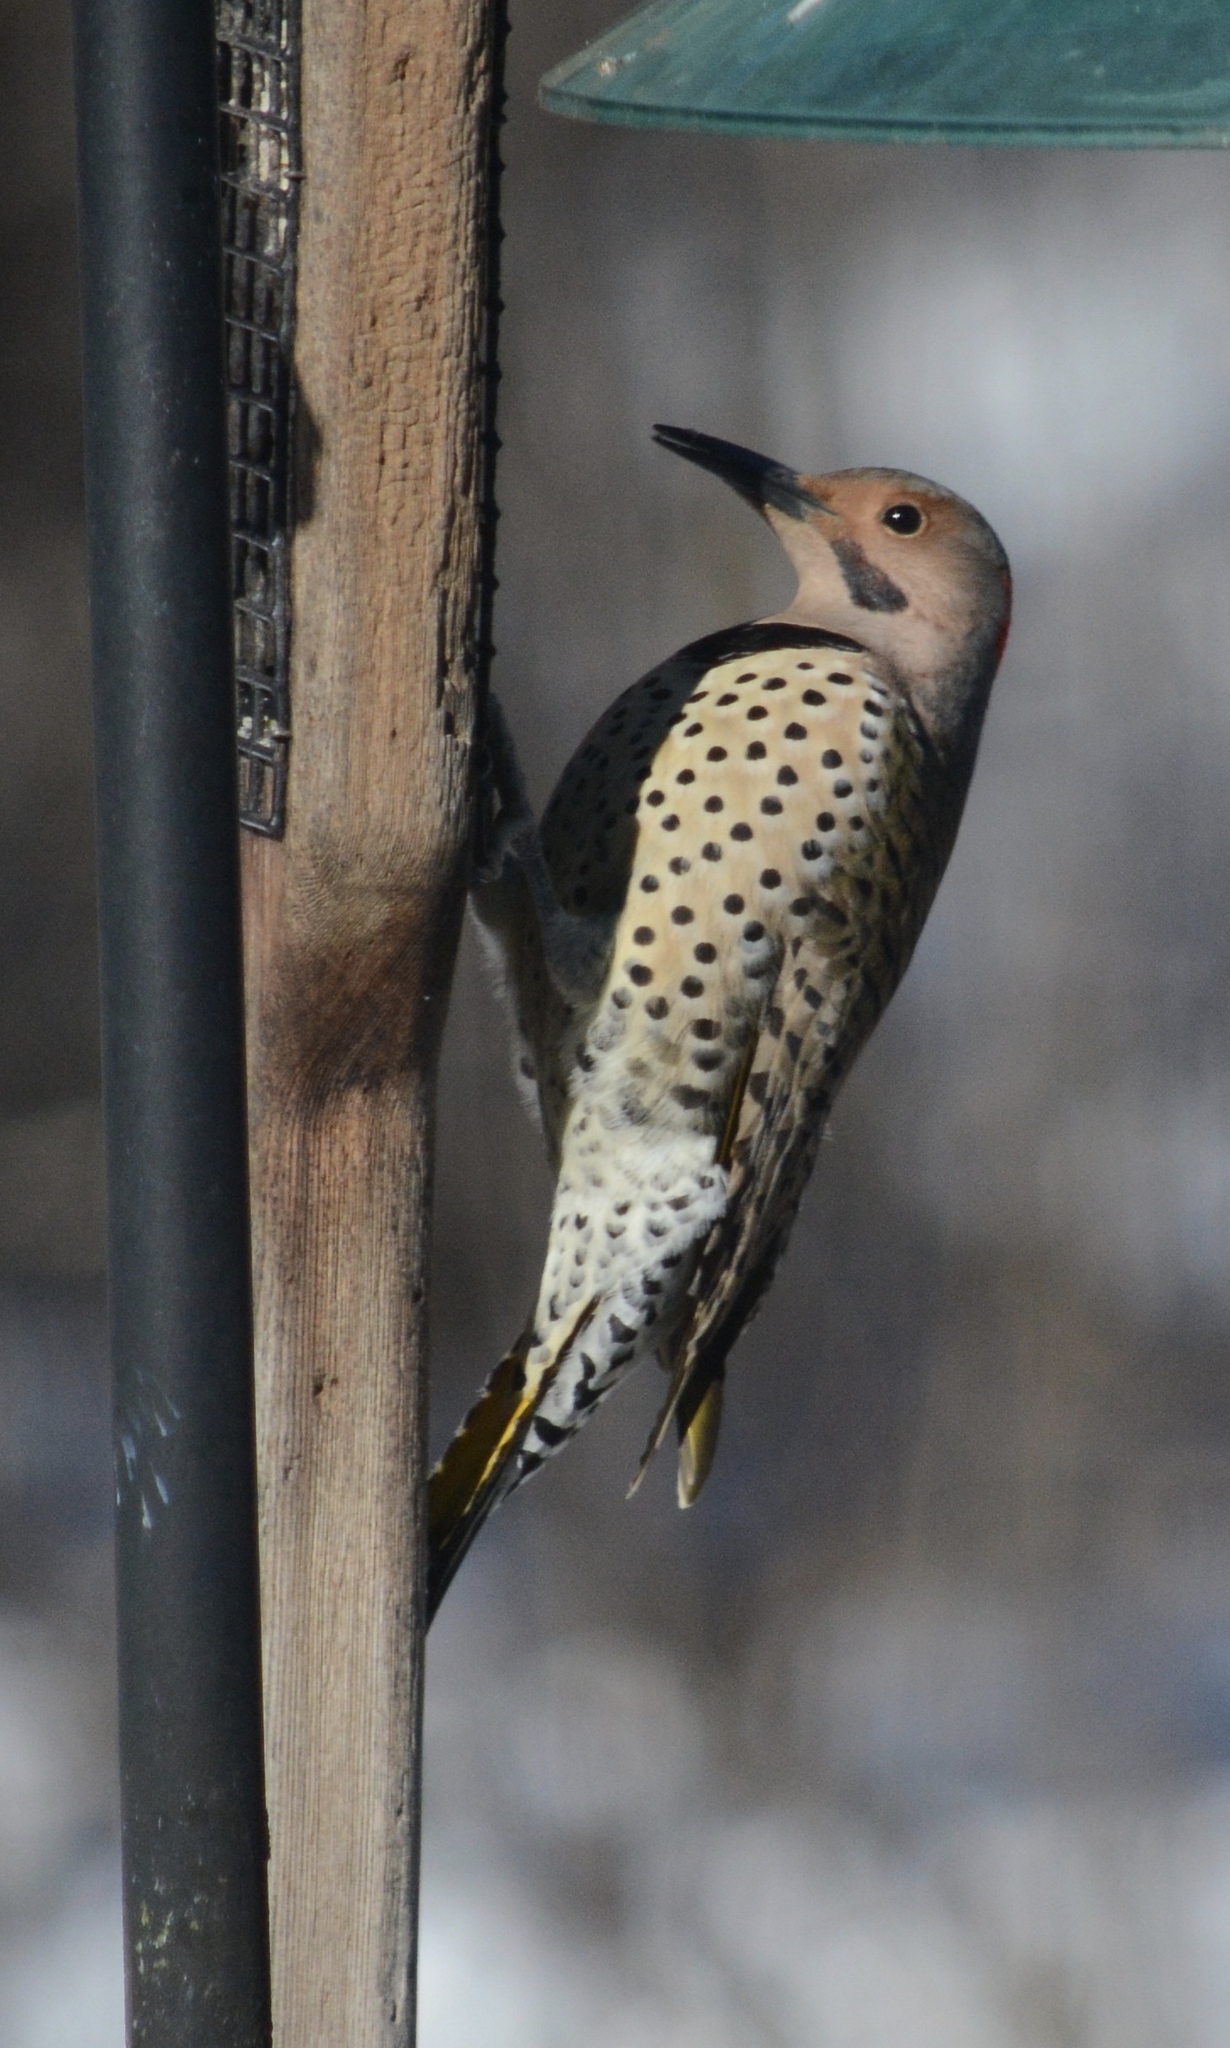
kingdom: Animalia
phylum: Chordata
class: Aves
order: Piciformes
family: Picidae
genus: Colaptes
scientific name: Colaptes auratus
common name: Northern flicker
